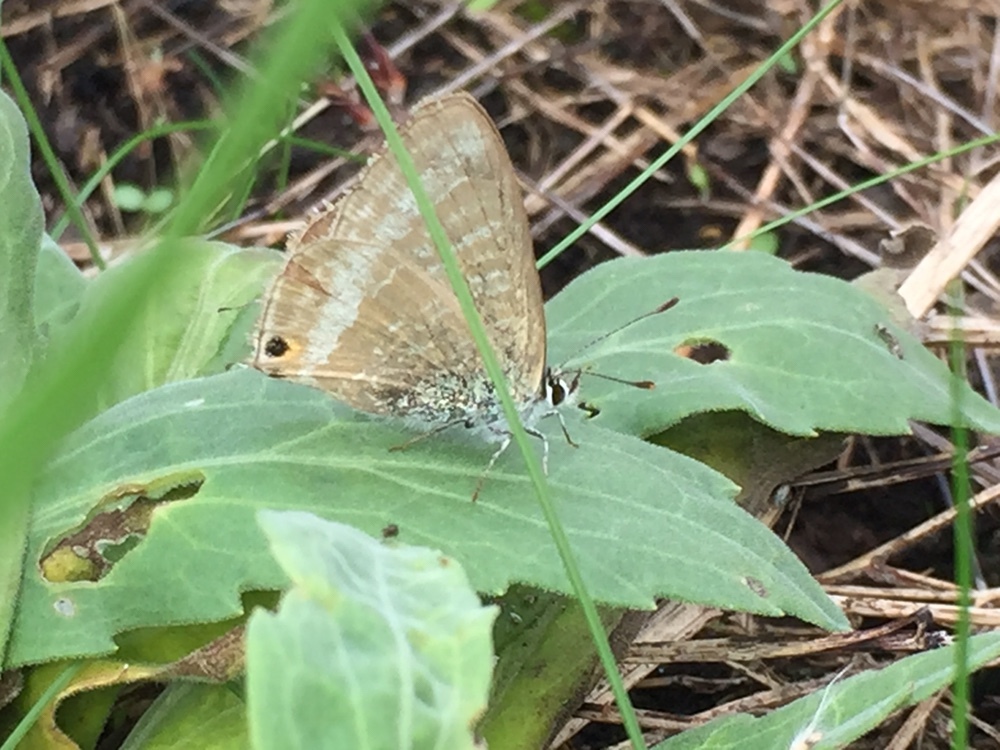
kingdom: Animalia
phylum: Arthropoda
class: Insecta
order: Lepidoptera
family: Lycaenidae
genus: Lampides
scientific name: Lampides boeticus
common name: Long-tailed blue
